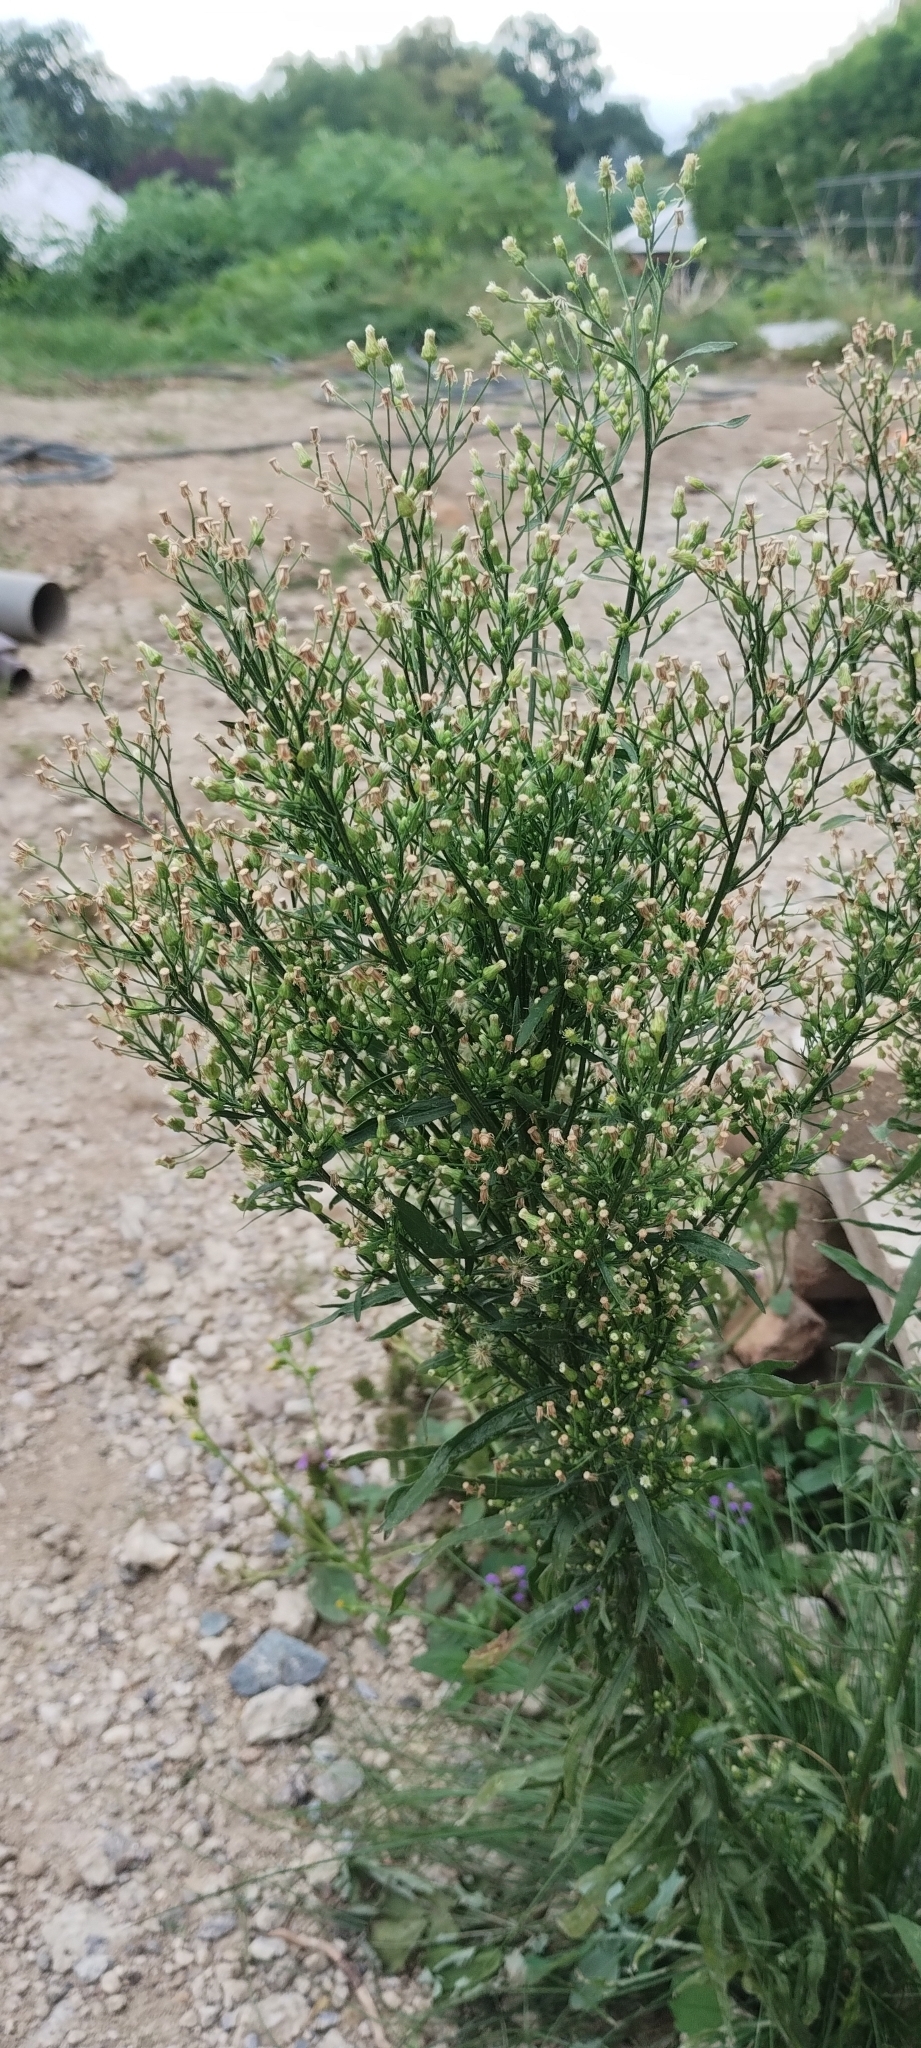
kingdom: Plantae
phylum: Tracheophyta
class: Magnoliopsida
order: Asterales
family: Asteraceae
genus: Erigeron
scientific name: Erigeron canadensis
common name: Canadian fleabane
